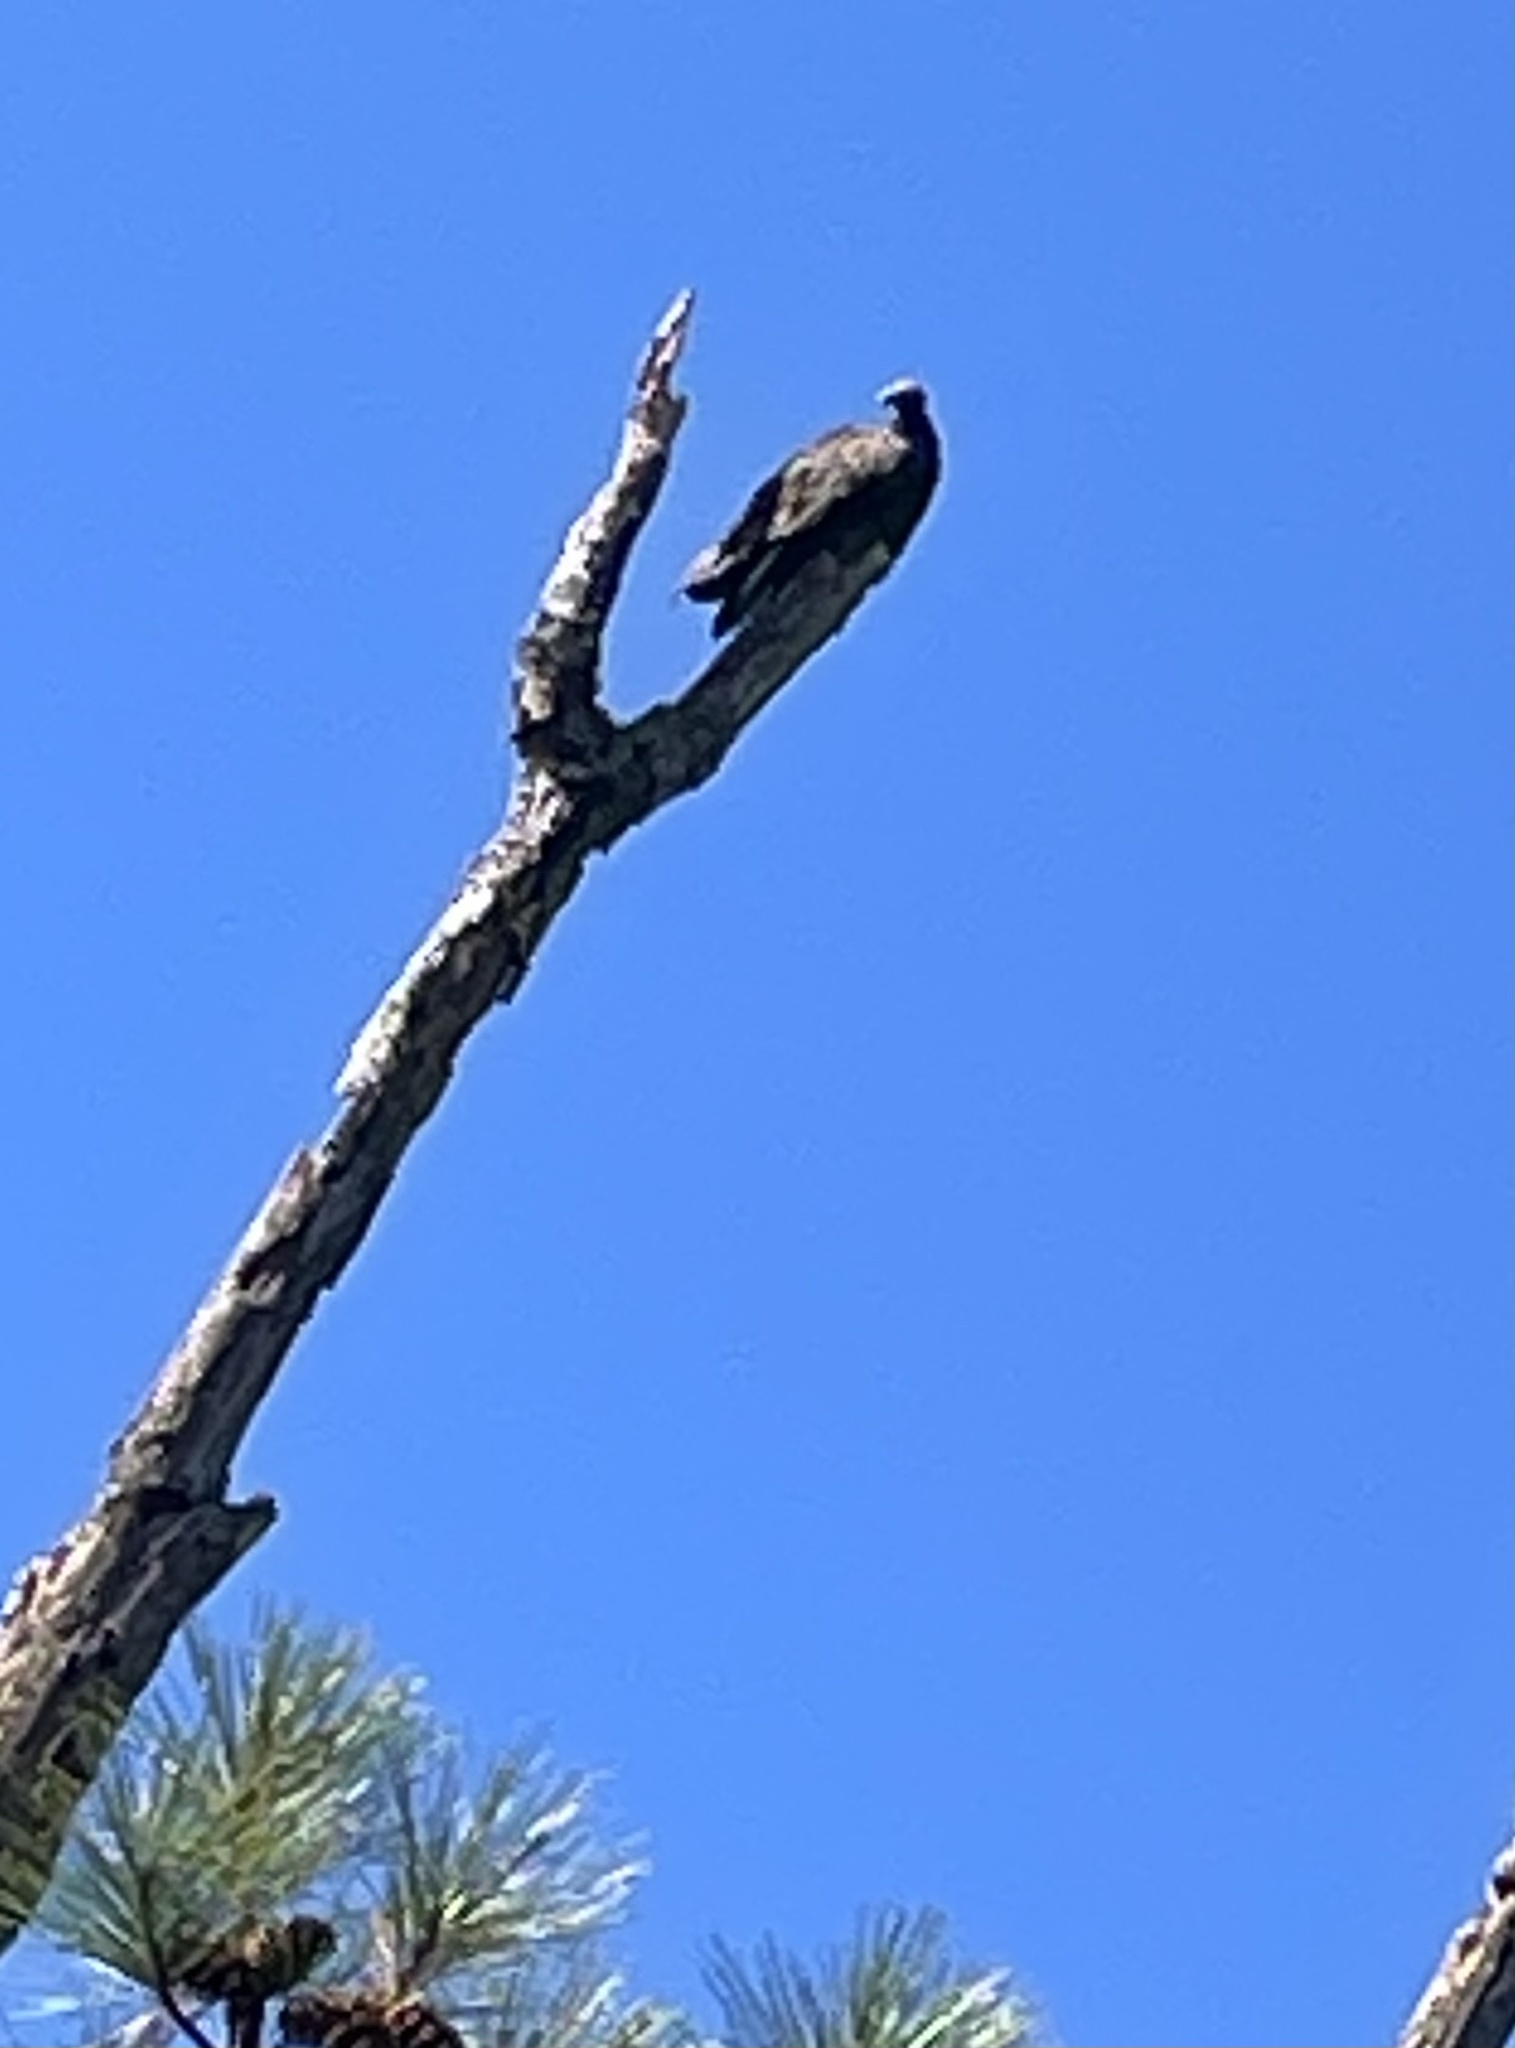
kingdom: Animalia
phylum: Chordata
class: Aves
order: Accipitriformes
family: Cathartidae
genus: Cathartes
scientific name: Cathartes aura
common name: Turkey vulture
